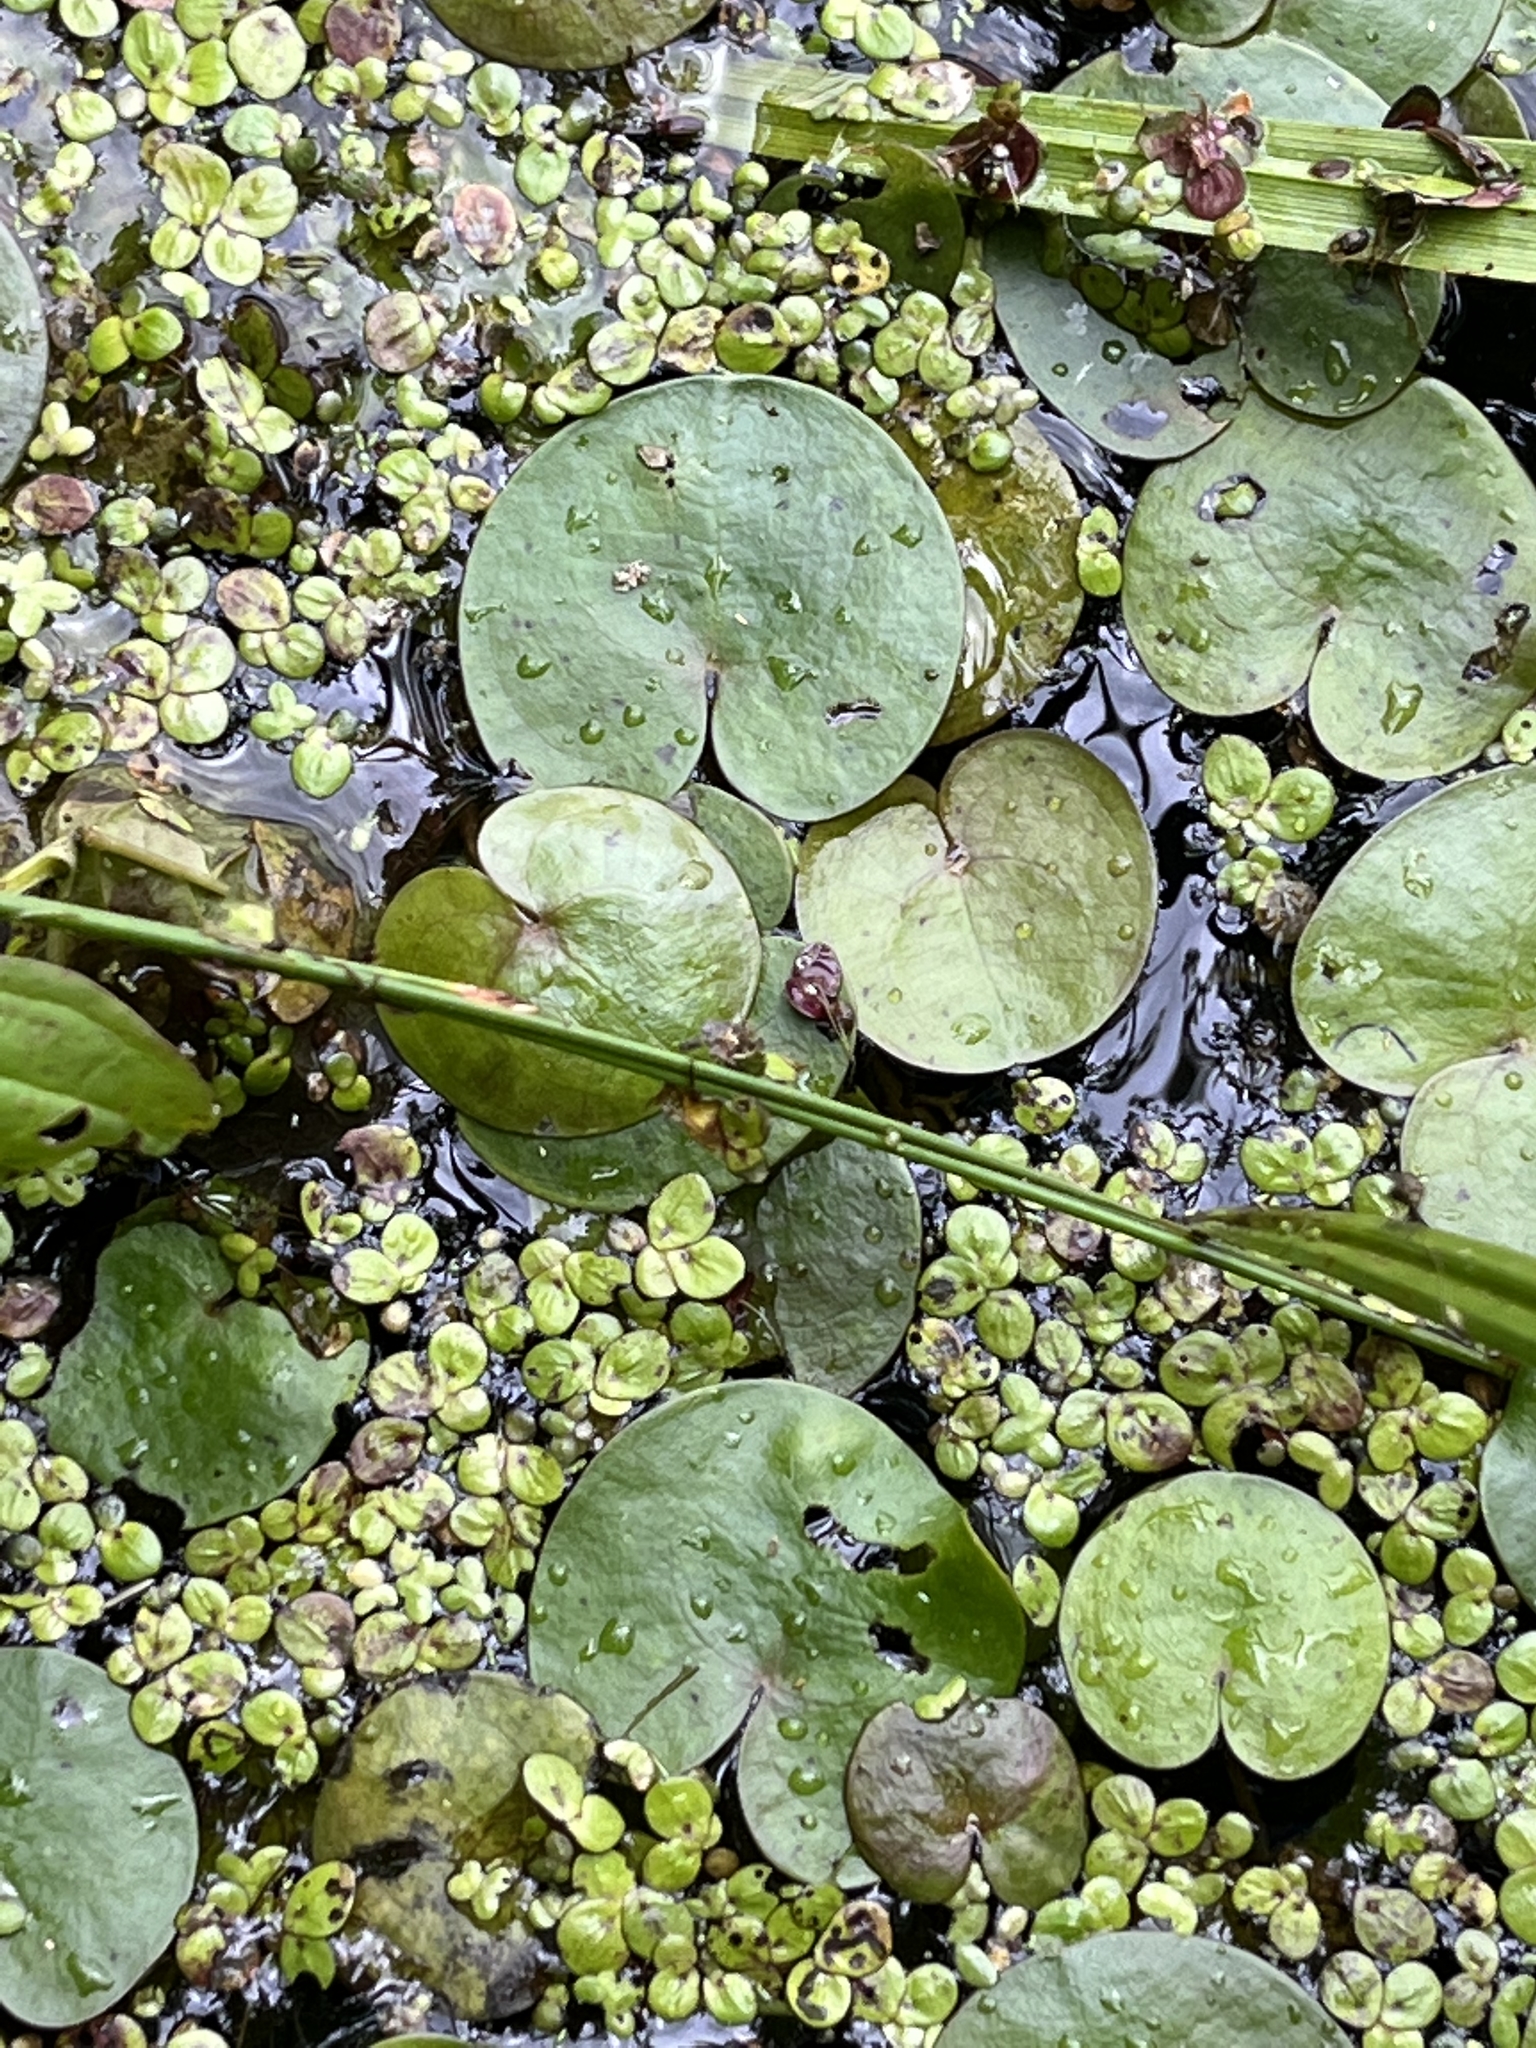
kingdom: Plantae
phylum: Tracheophyta
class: Liliopsida
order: Alismatales
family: Hydrocharitaceae
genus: Hydrocharis
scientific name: Hydrocharis morsus-ranae
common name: Frogbit
